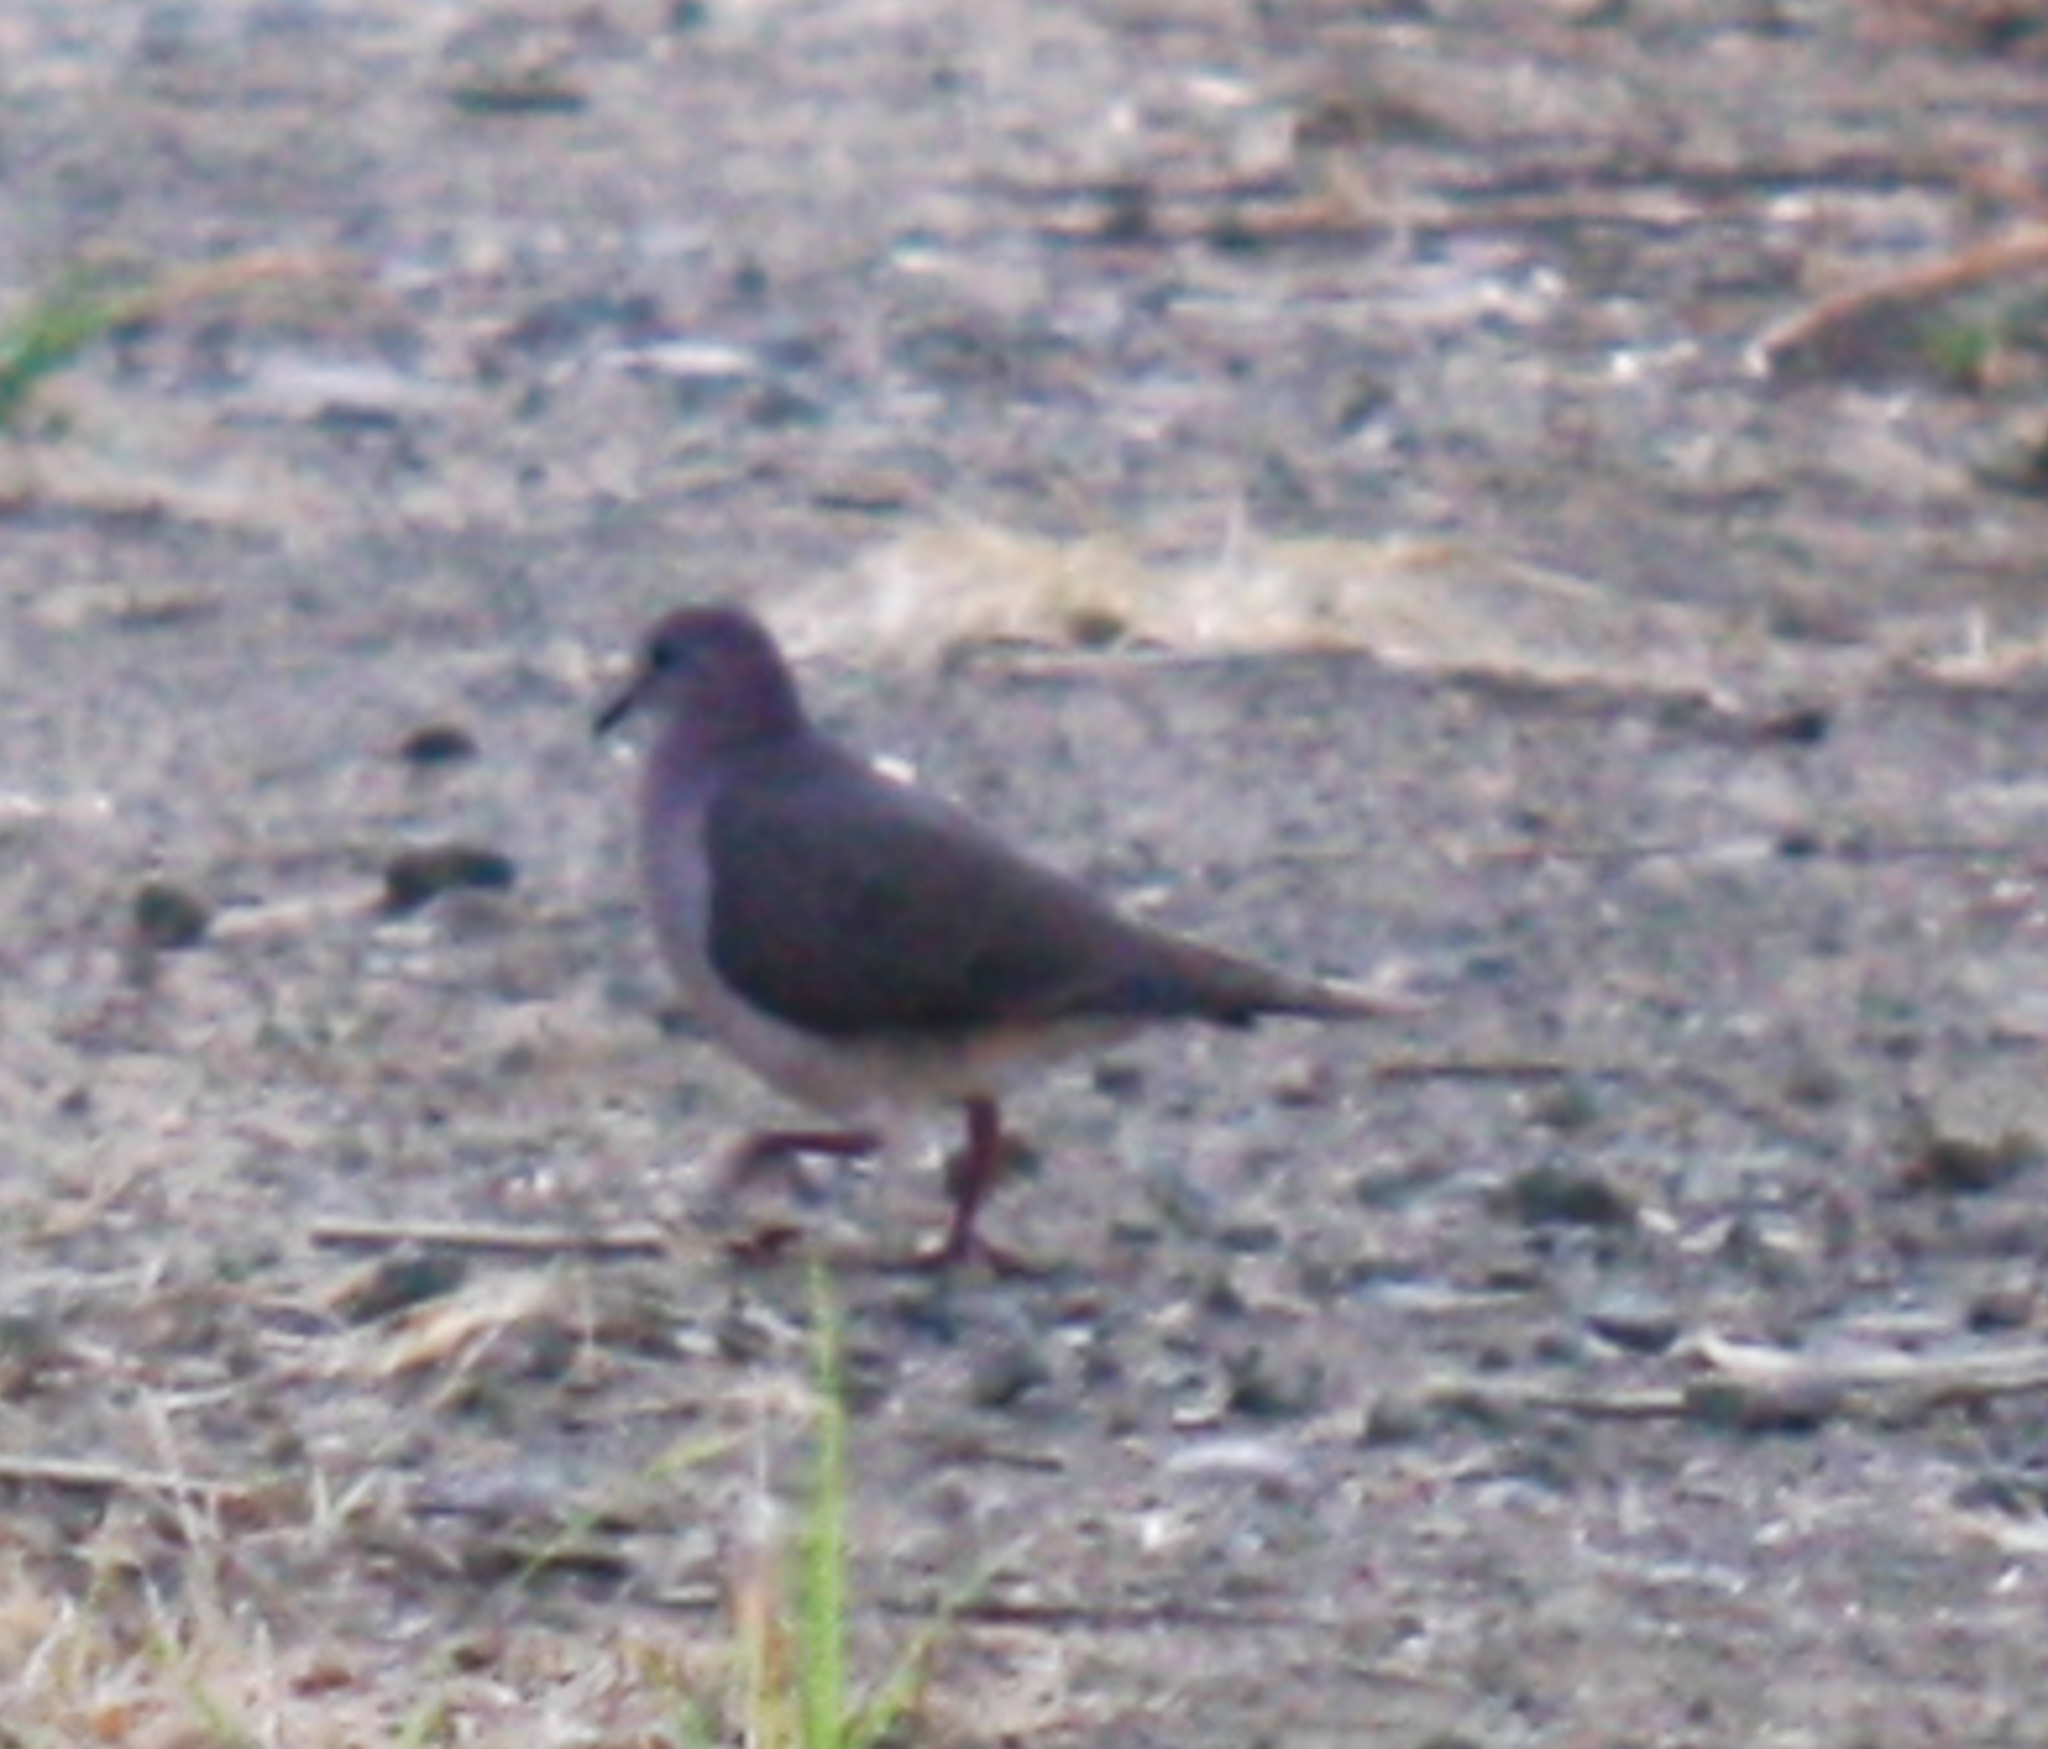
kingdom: Animalia
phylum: Chordata
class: Aves
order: Columbiformes
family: Columbidae
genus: Leptotila
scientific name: Leptotila verreauxi
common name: White-tipped dove
